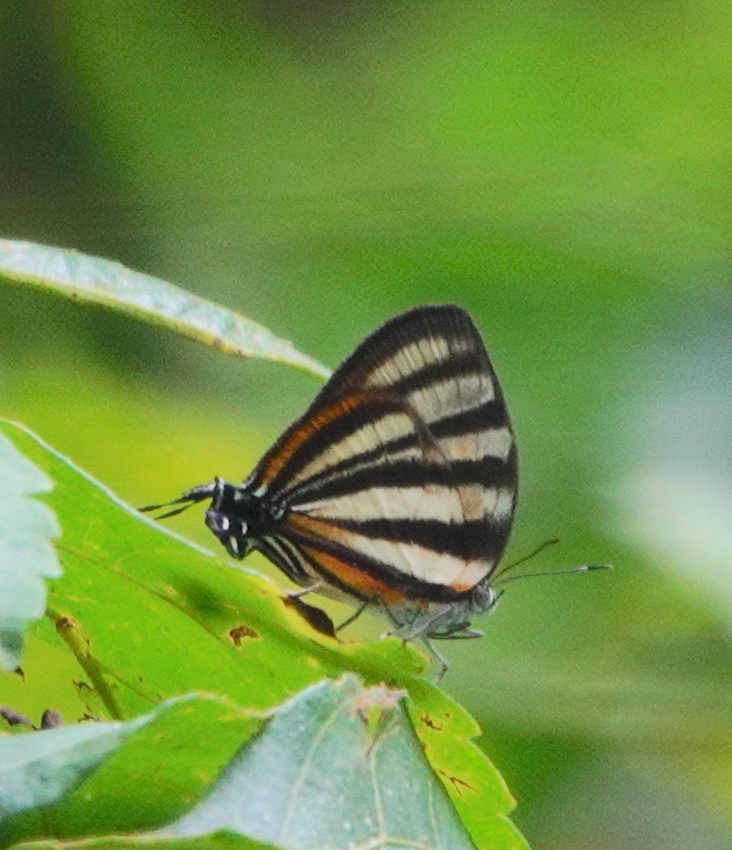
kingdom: Animalia
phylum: Arthropoda
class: Insecta
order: Lepidoptera
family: Lycaenidae
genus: Arawacus
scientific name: Arawacus separata
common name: Separated stripestreak
